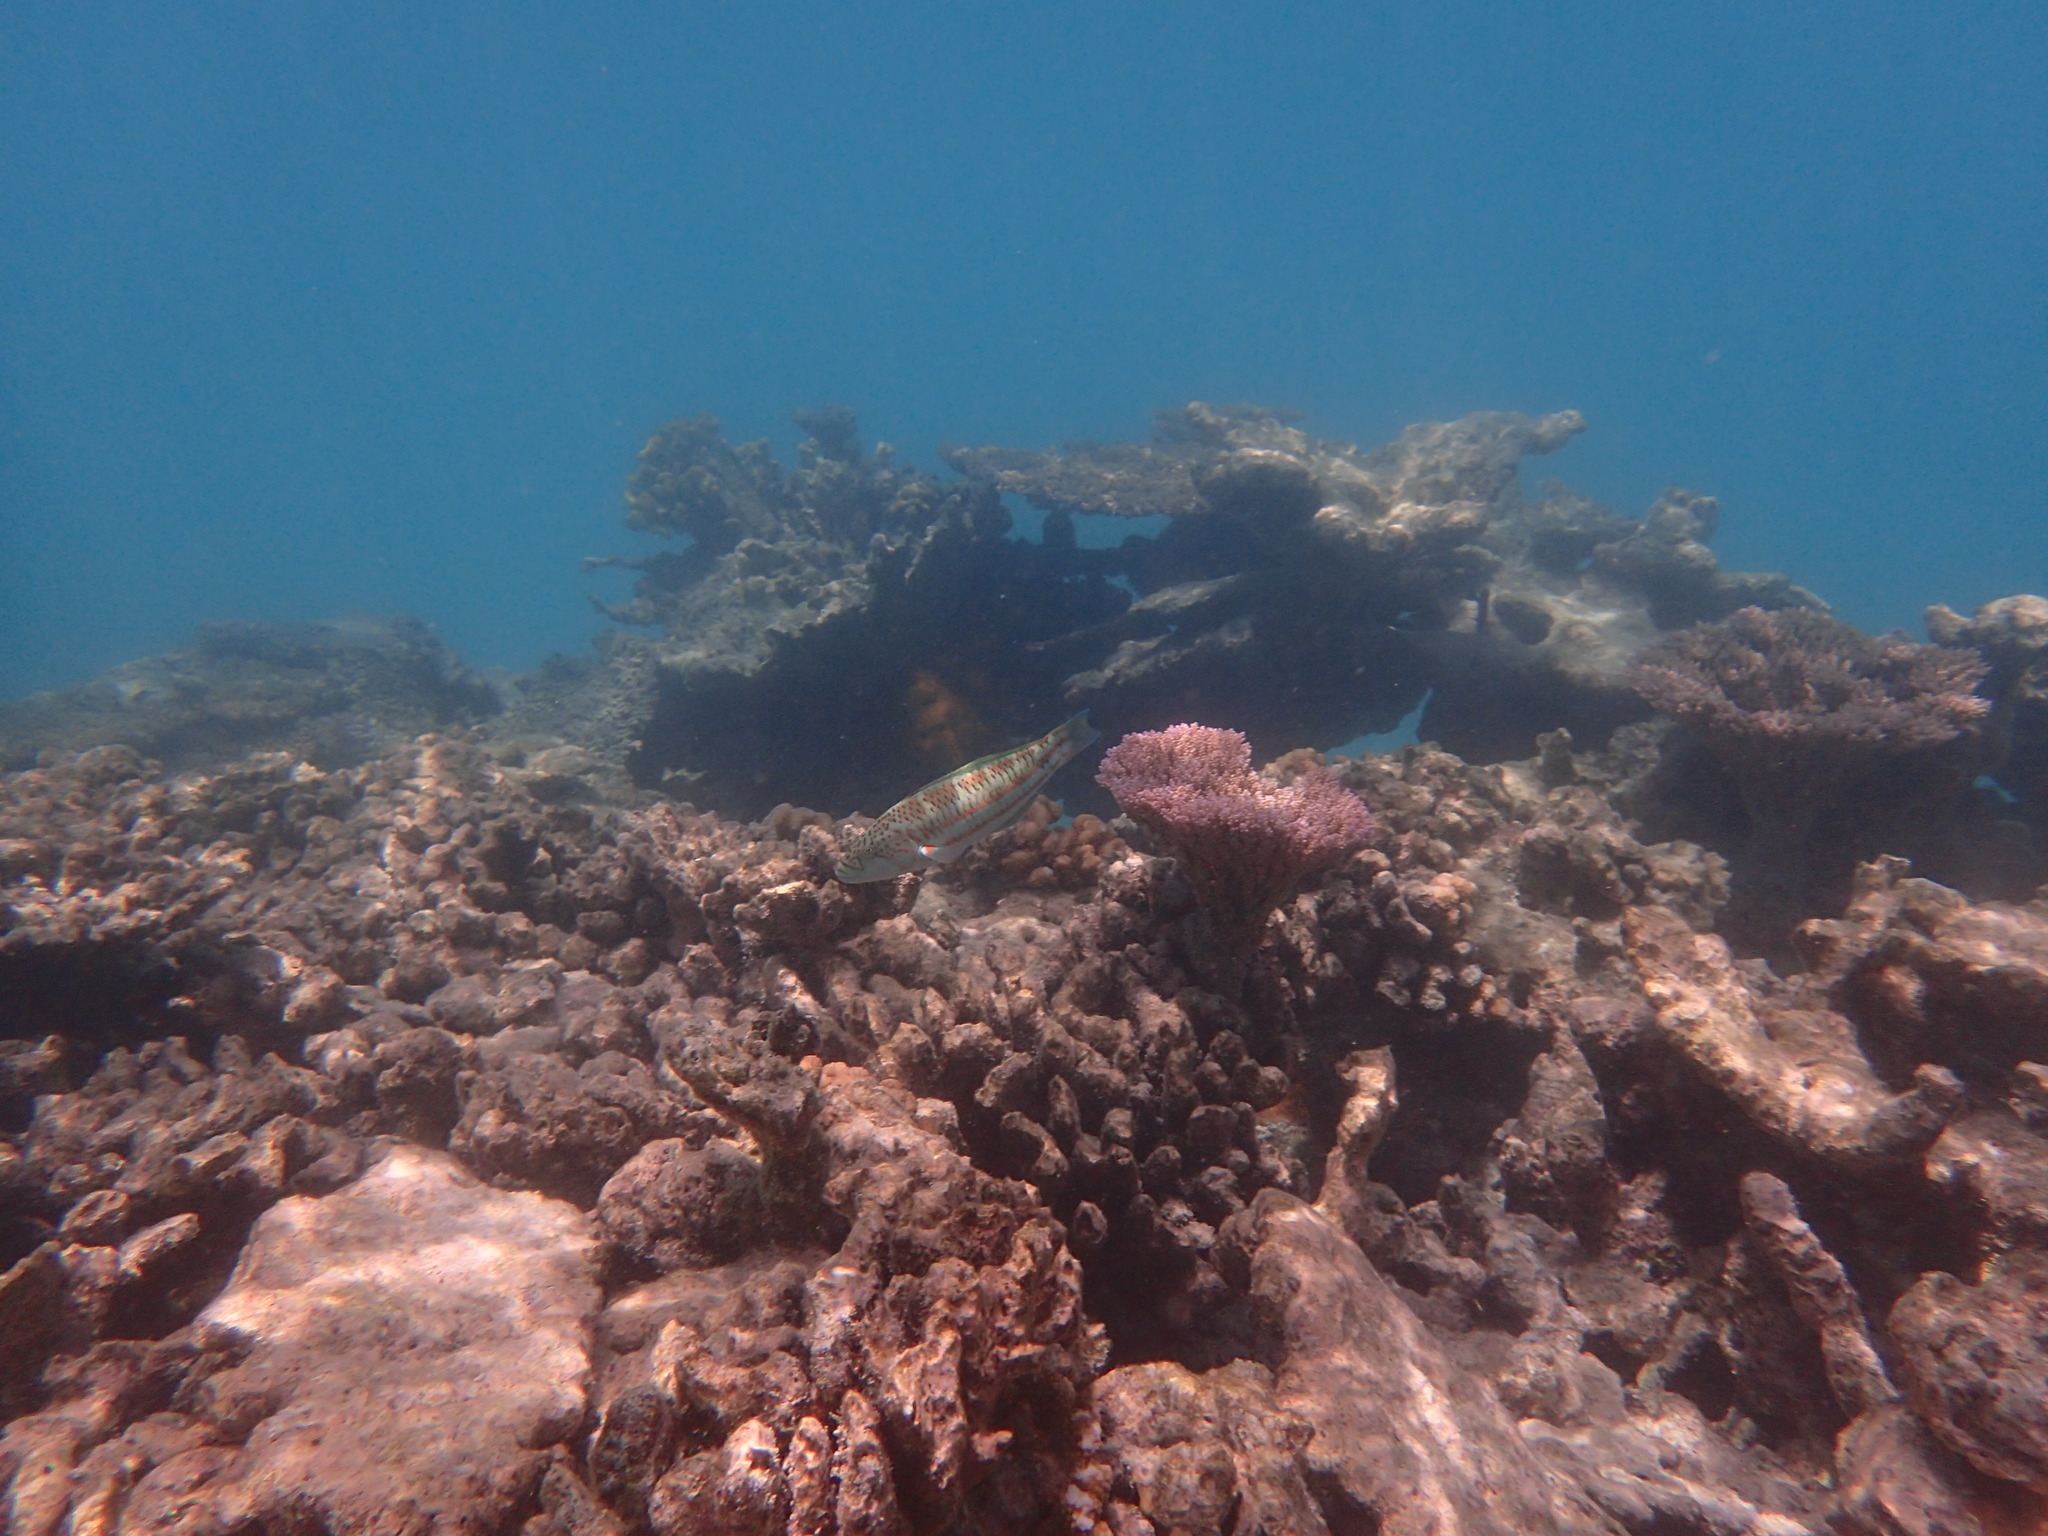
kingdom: Animalia
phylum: Chordata
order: Perciformes
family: Labridae
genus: Thalassoma
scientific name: Thalassoma purpureum
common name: Parrotfish
